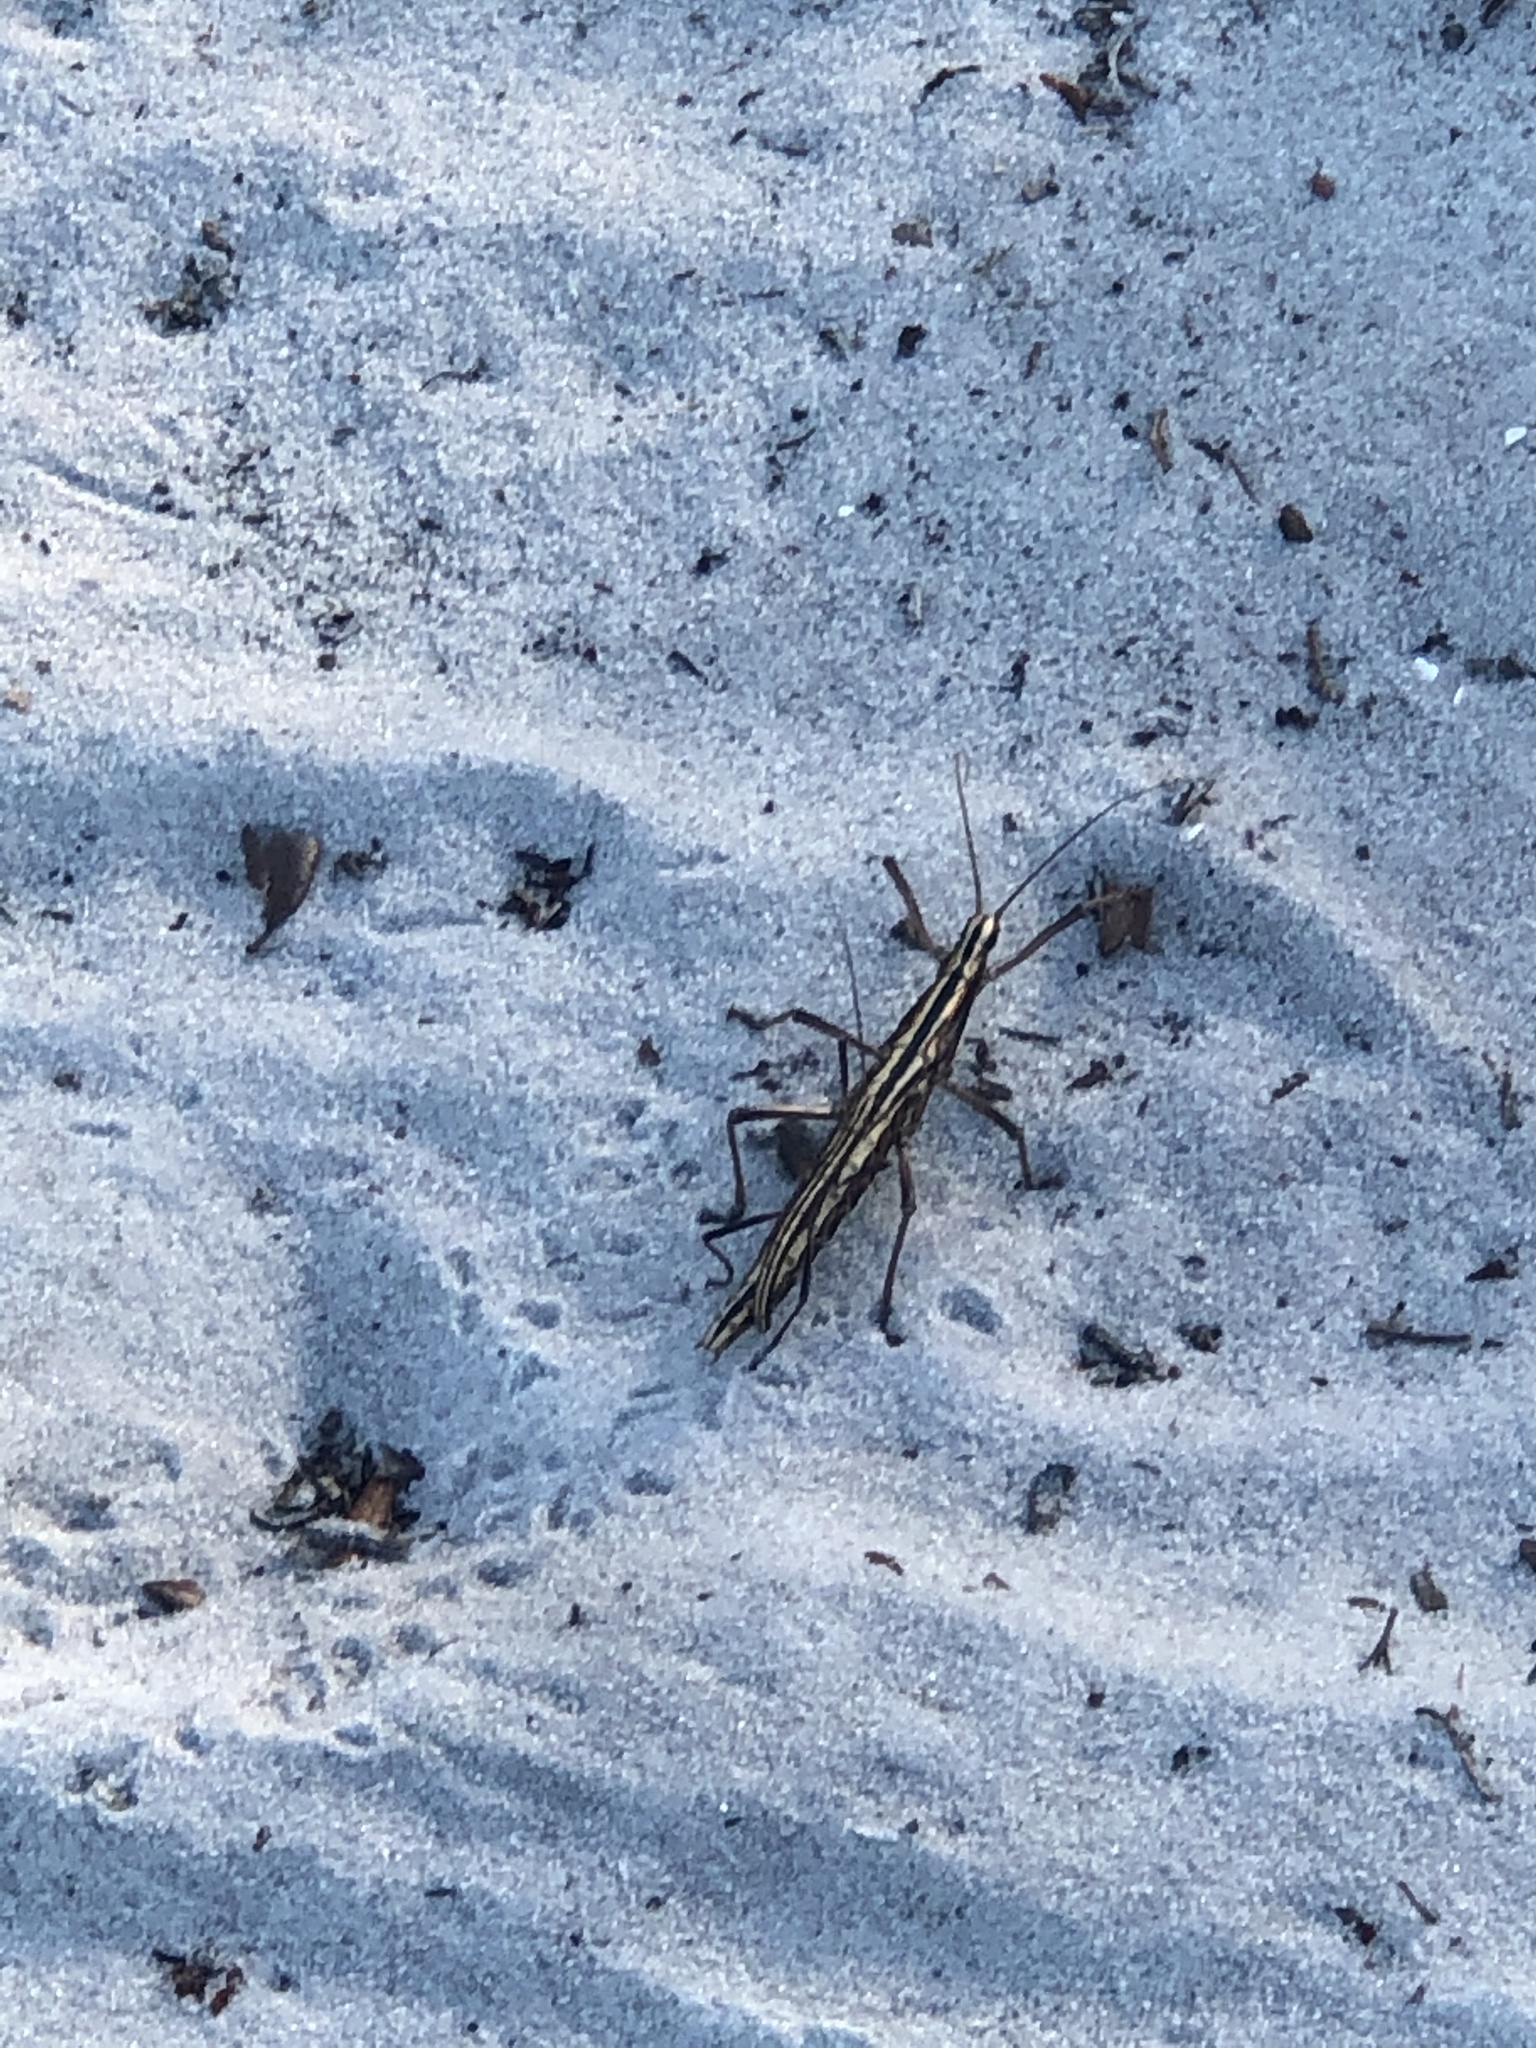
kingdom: Animalia
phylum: Arthropoda
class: Insecta
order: Phasmida
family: Pseudophasmatidae
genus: Anisomorpha
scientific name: Anisomorpha buprestoides
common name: Florida stick insect
